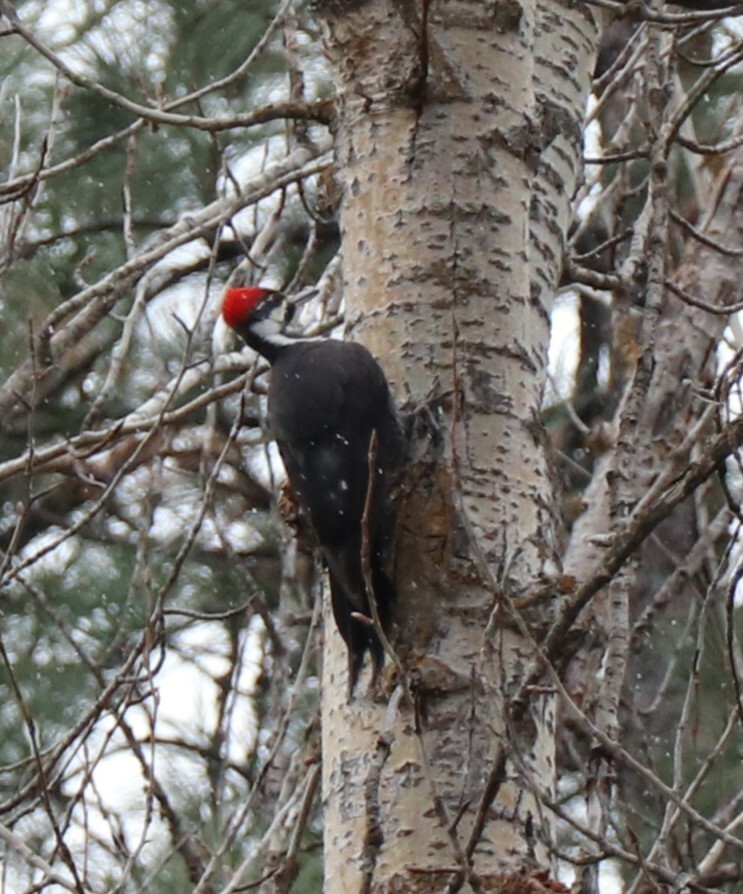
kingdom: Animalia
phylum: Chordata
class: Aves
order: Piciformes
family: Picidae
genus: Dryocopus
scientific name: Dryocopus pileatus
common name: Pileated woodpecker
